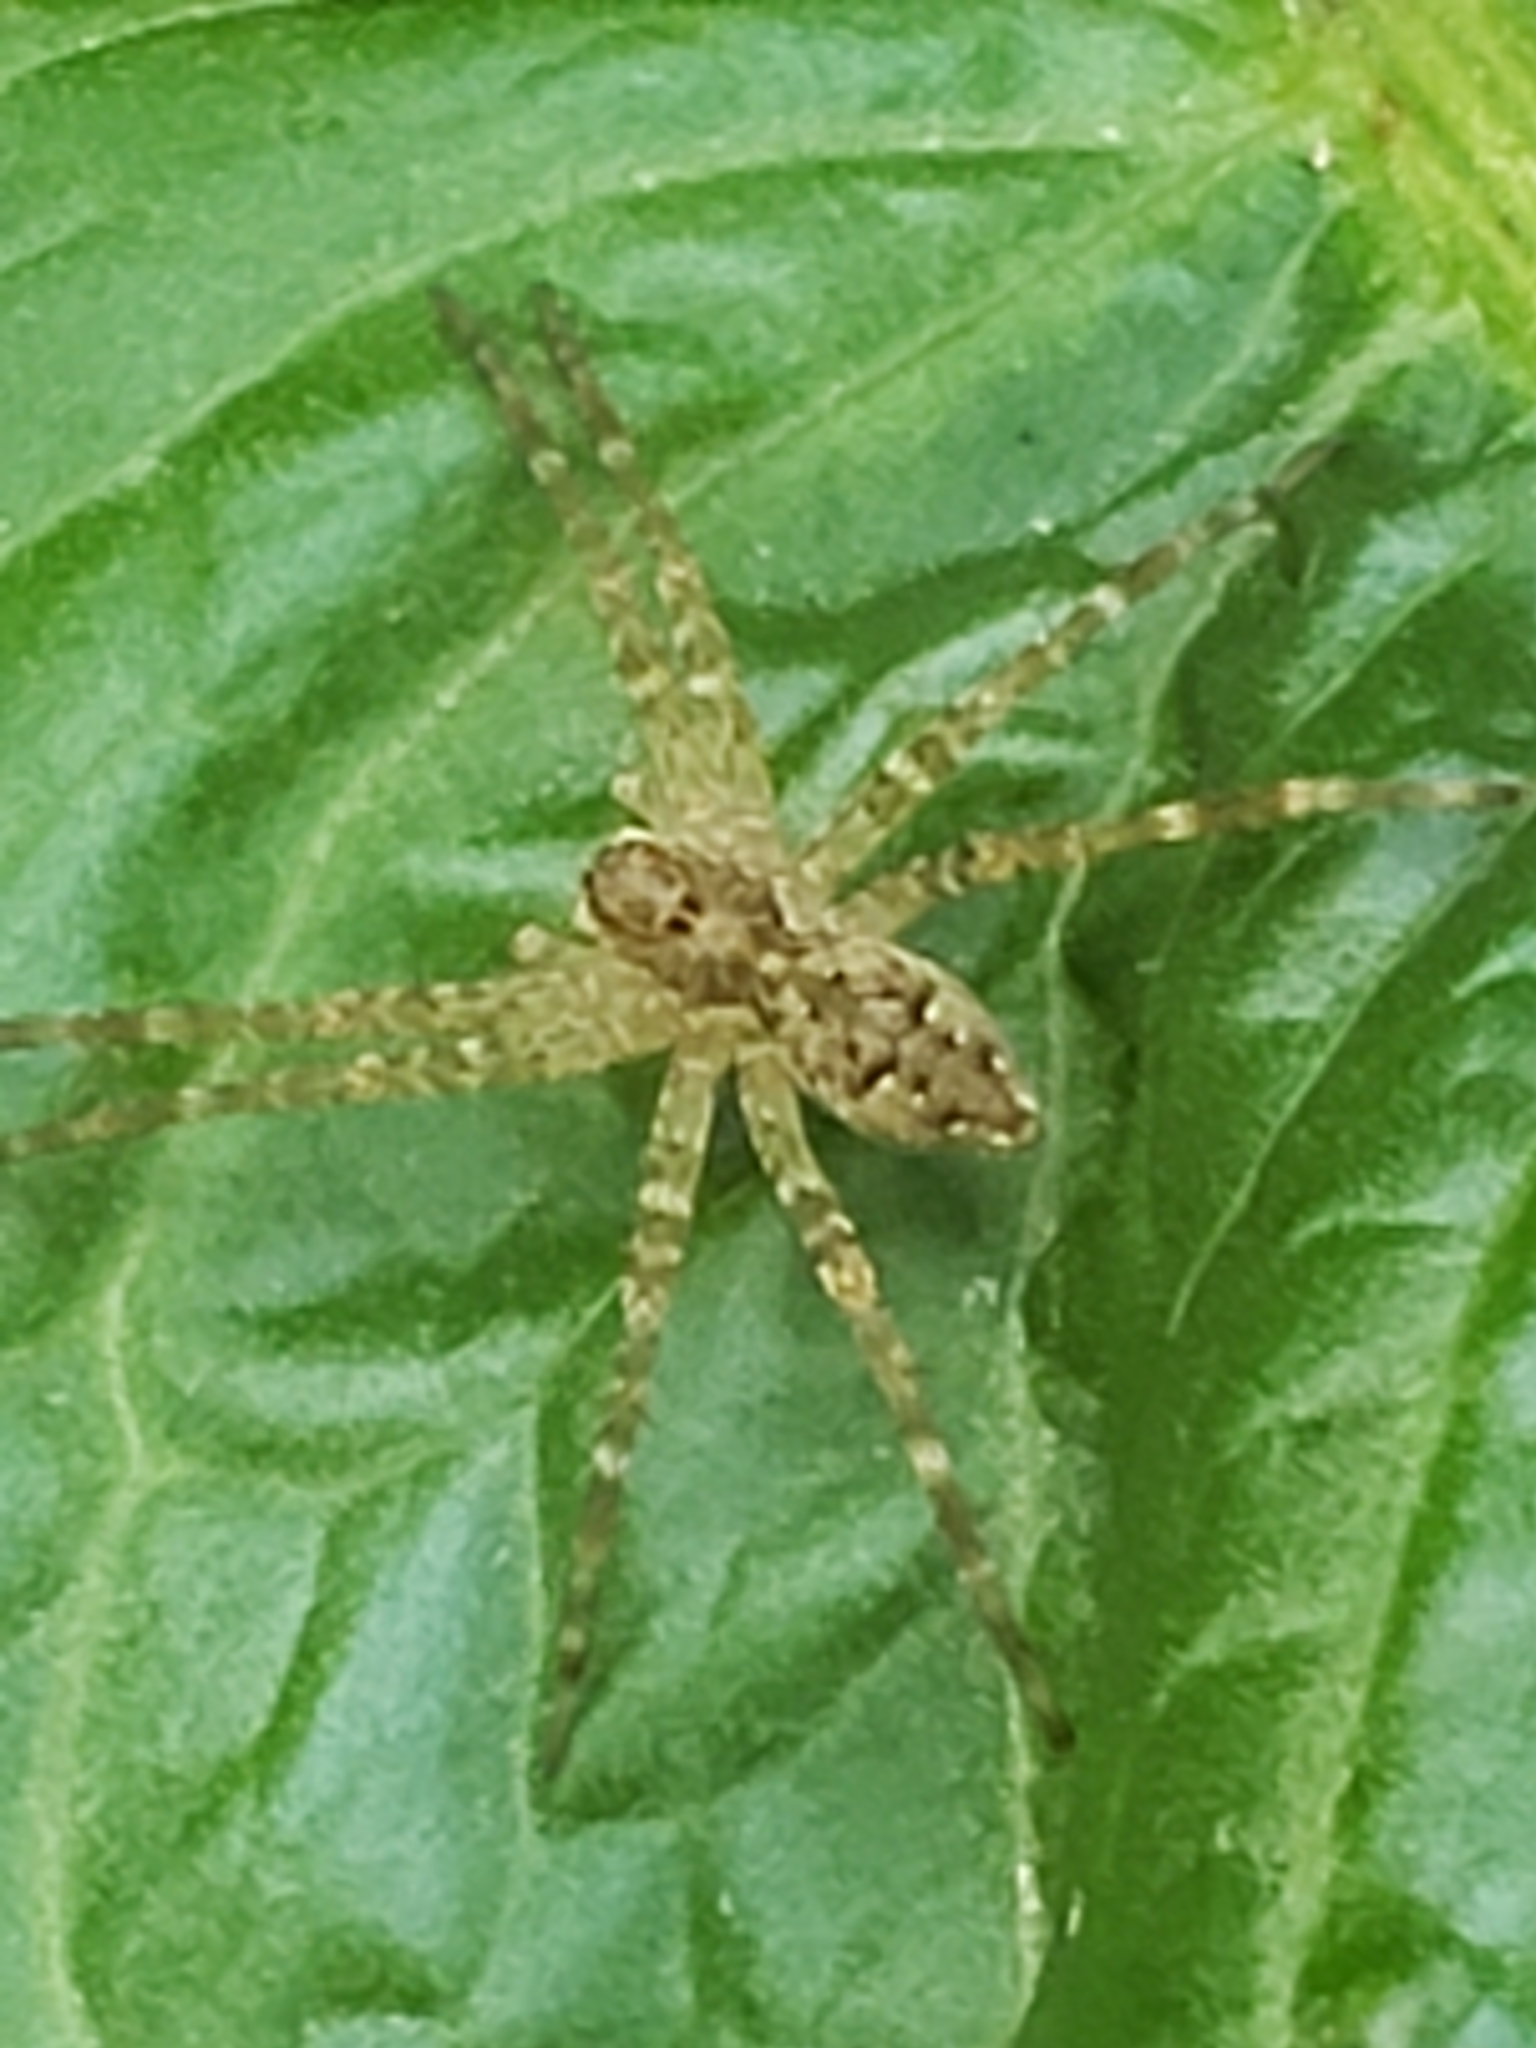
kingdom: Animalia
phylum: Arthropoda
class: Arachnida
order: Araneae
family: Pisauridae
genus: Dolomedes
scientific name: Dolomedes vittatus
